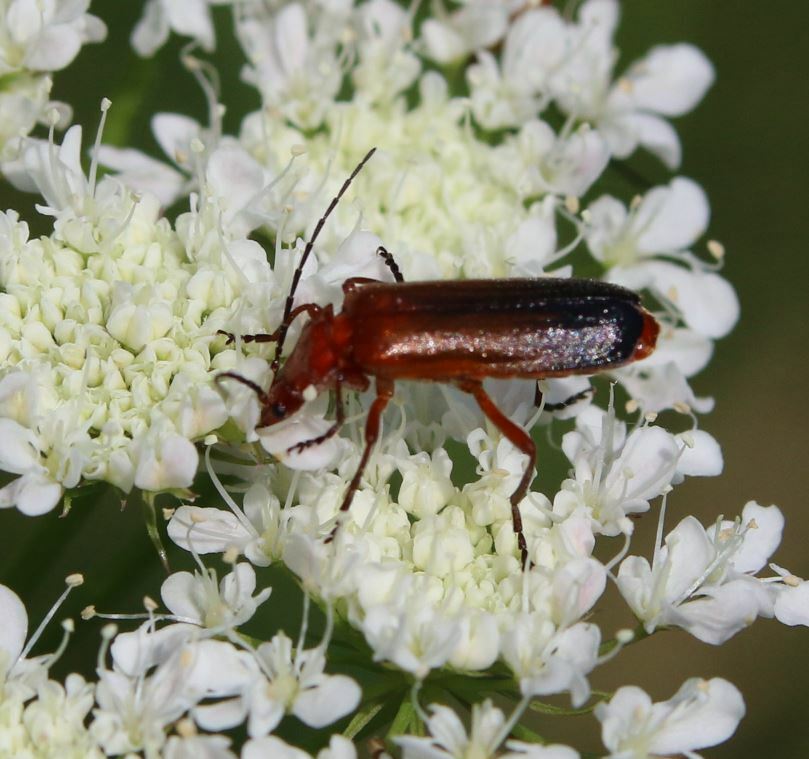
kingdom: Animalia
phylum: Arthropoda
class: Insecta
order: Coleoptera
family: Cantharidae
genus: Rhagonycha
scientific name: Rhagonycha fulva
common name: Common red soldier beetle
